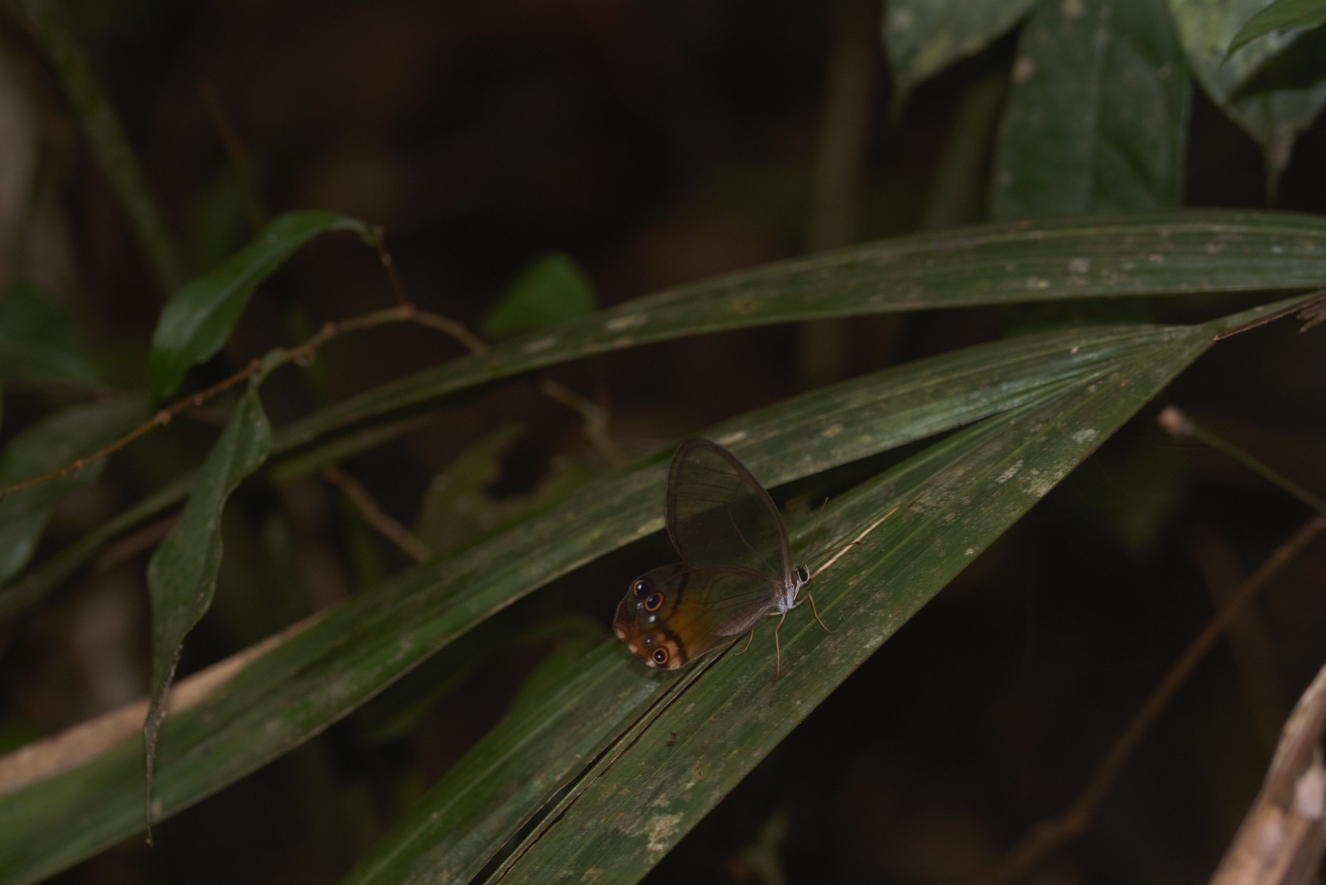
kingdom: Animalia
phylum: Arthropoda
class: Insecta
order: Lepidoptera
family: Nymphalidae
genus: Haetera
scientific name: Haetera piera
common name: Amber phantom
